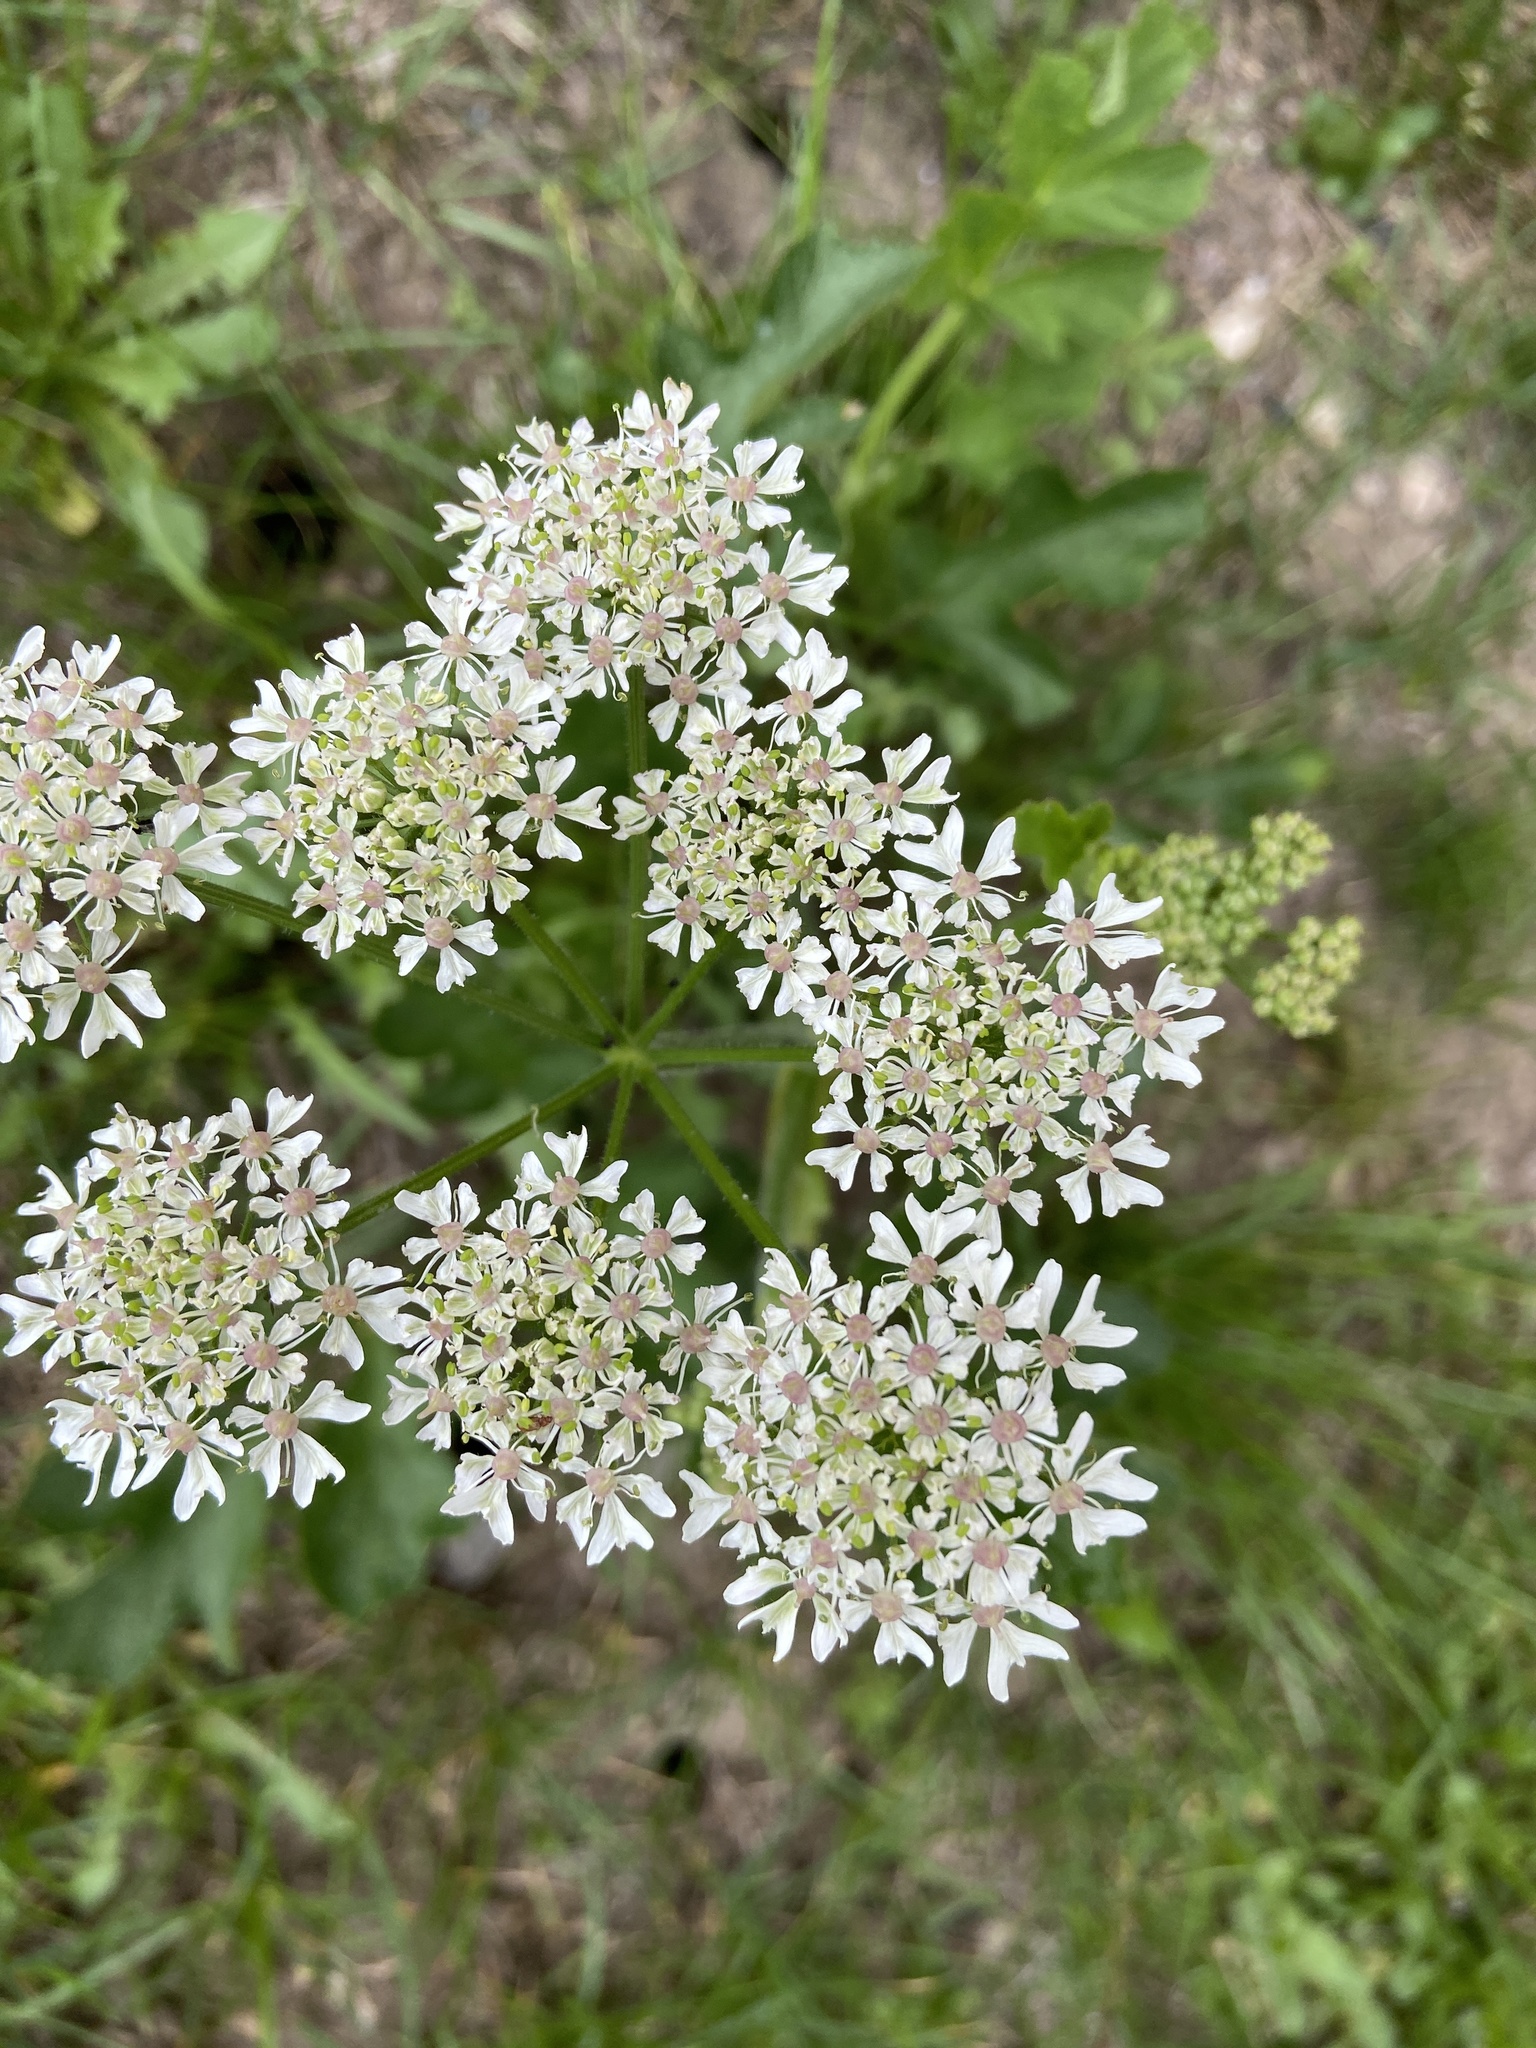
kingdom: Plantae
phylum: Tracheophyta
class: Magnoliopsida
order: Apiales
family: Apiaceae
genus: Heracleum
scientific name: Heracleum sphondylium
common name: Hogweed
